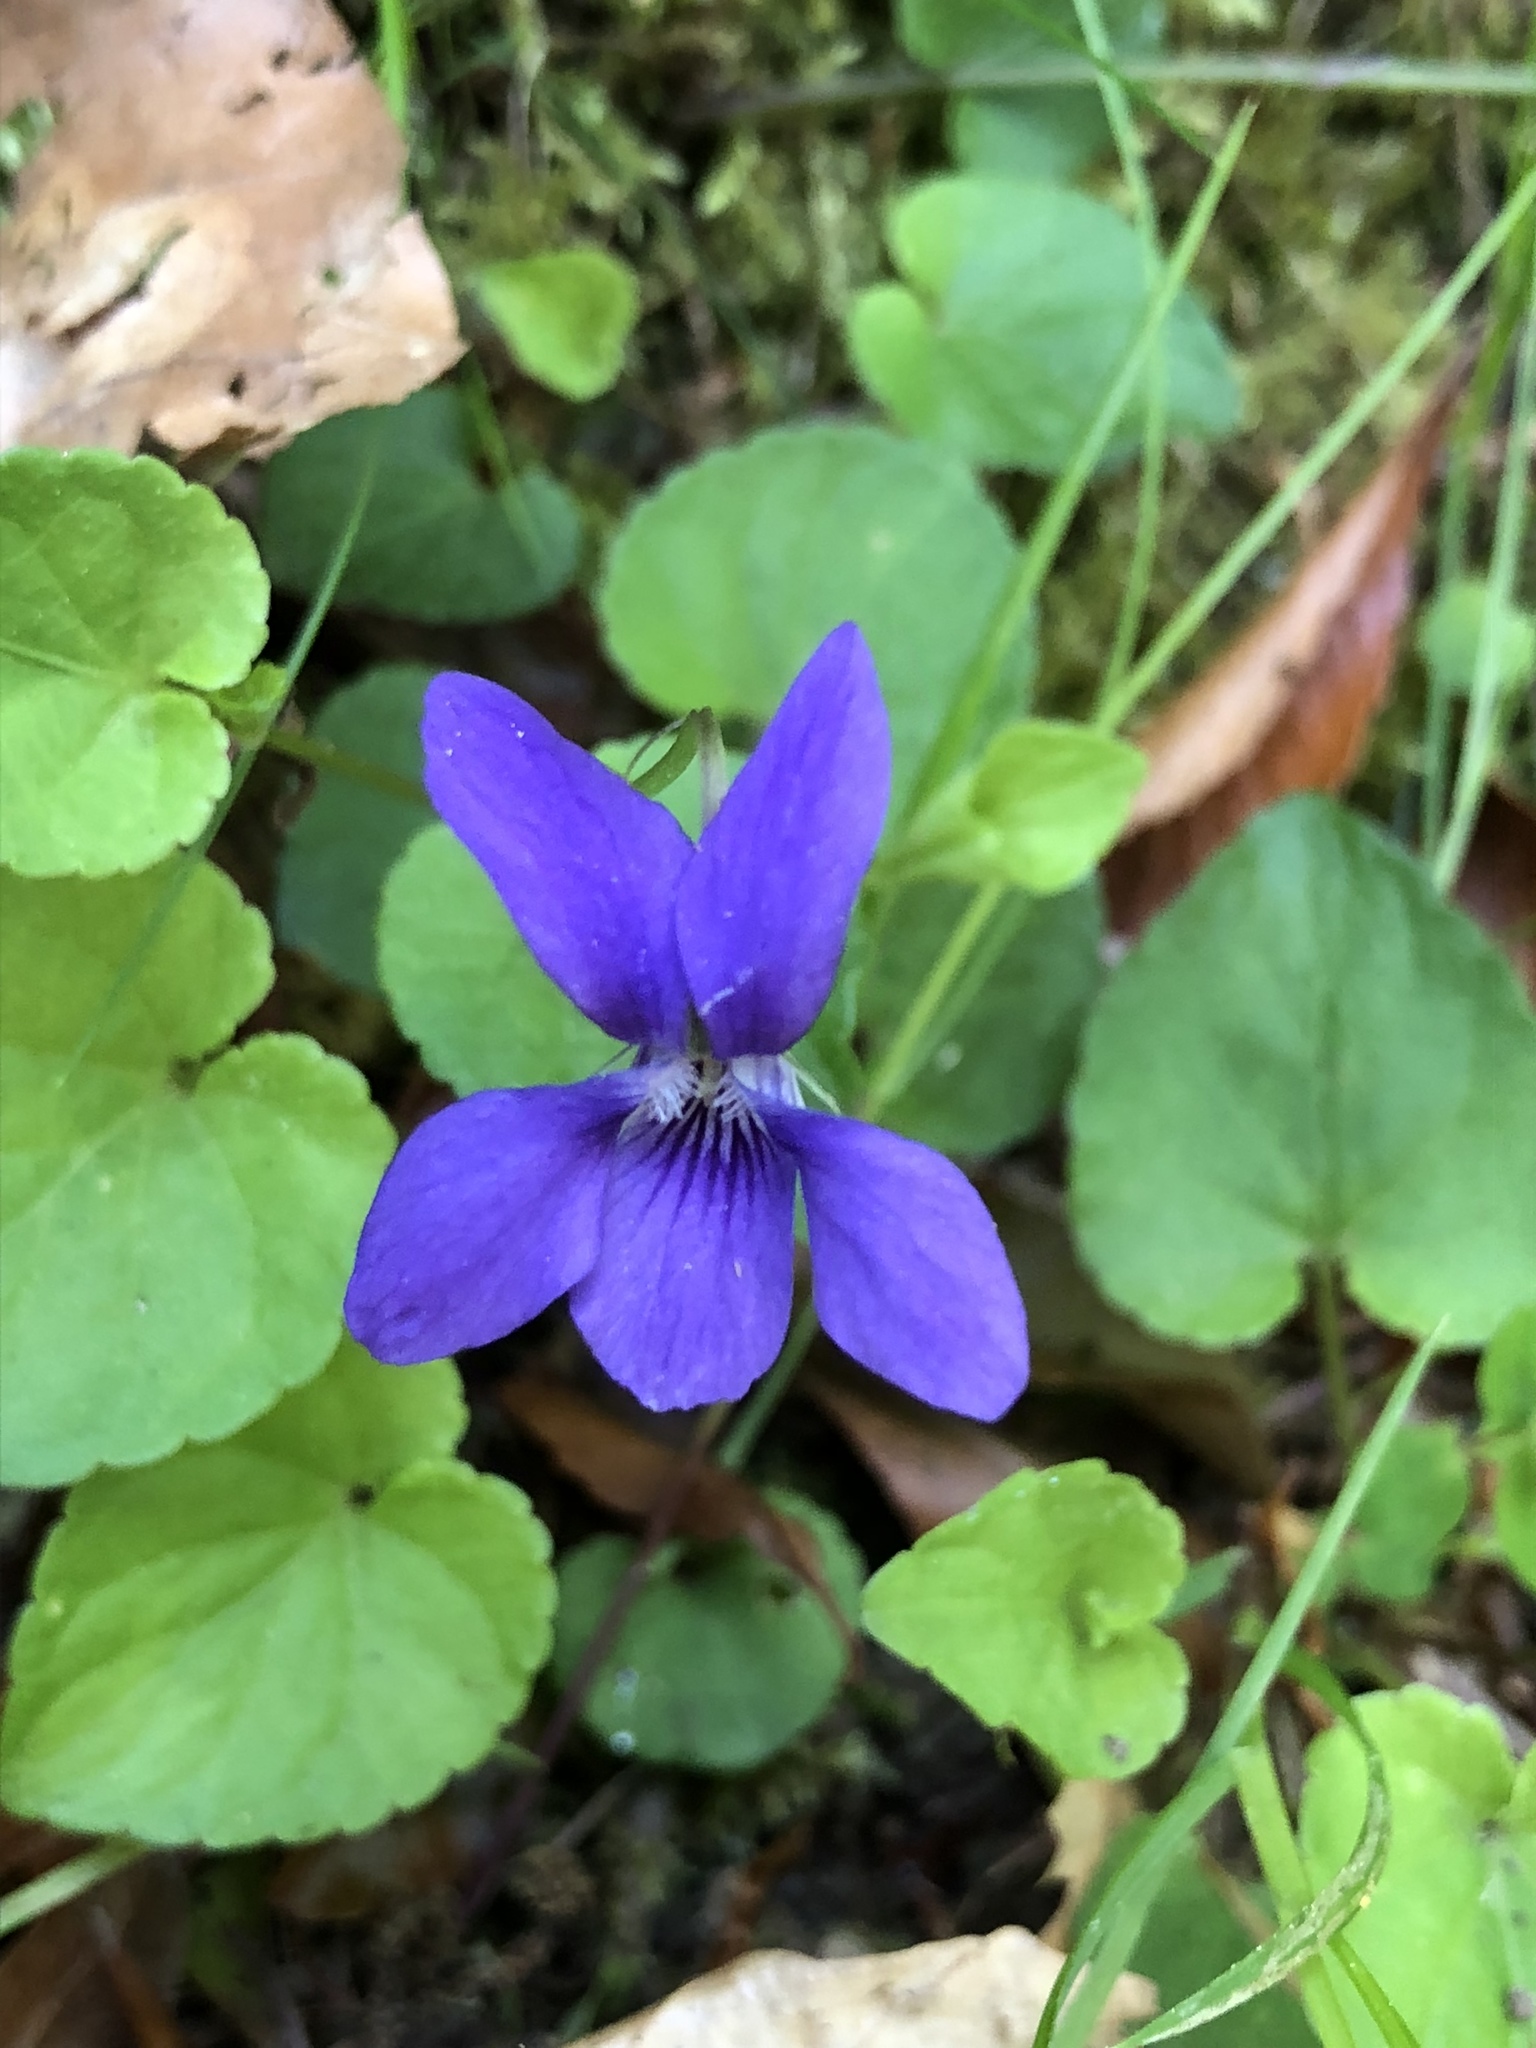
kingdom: Plantae
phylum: Tracheophyta
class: Magnoliopsida
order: Malpighiales
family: Violaceae
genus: Viola
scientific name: Viola odorata
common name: Sweet violet
